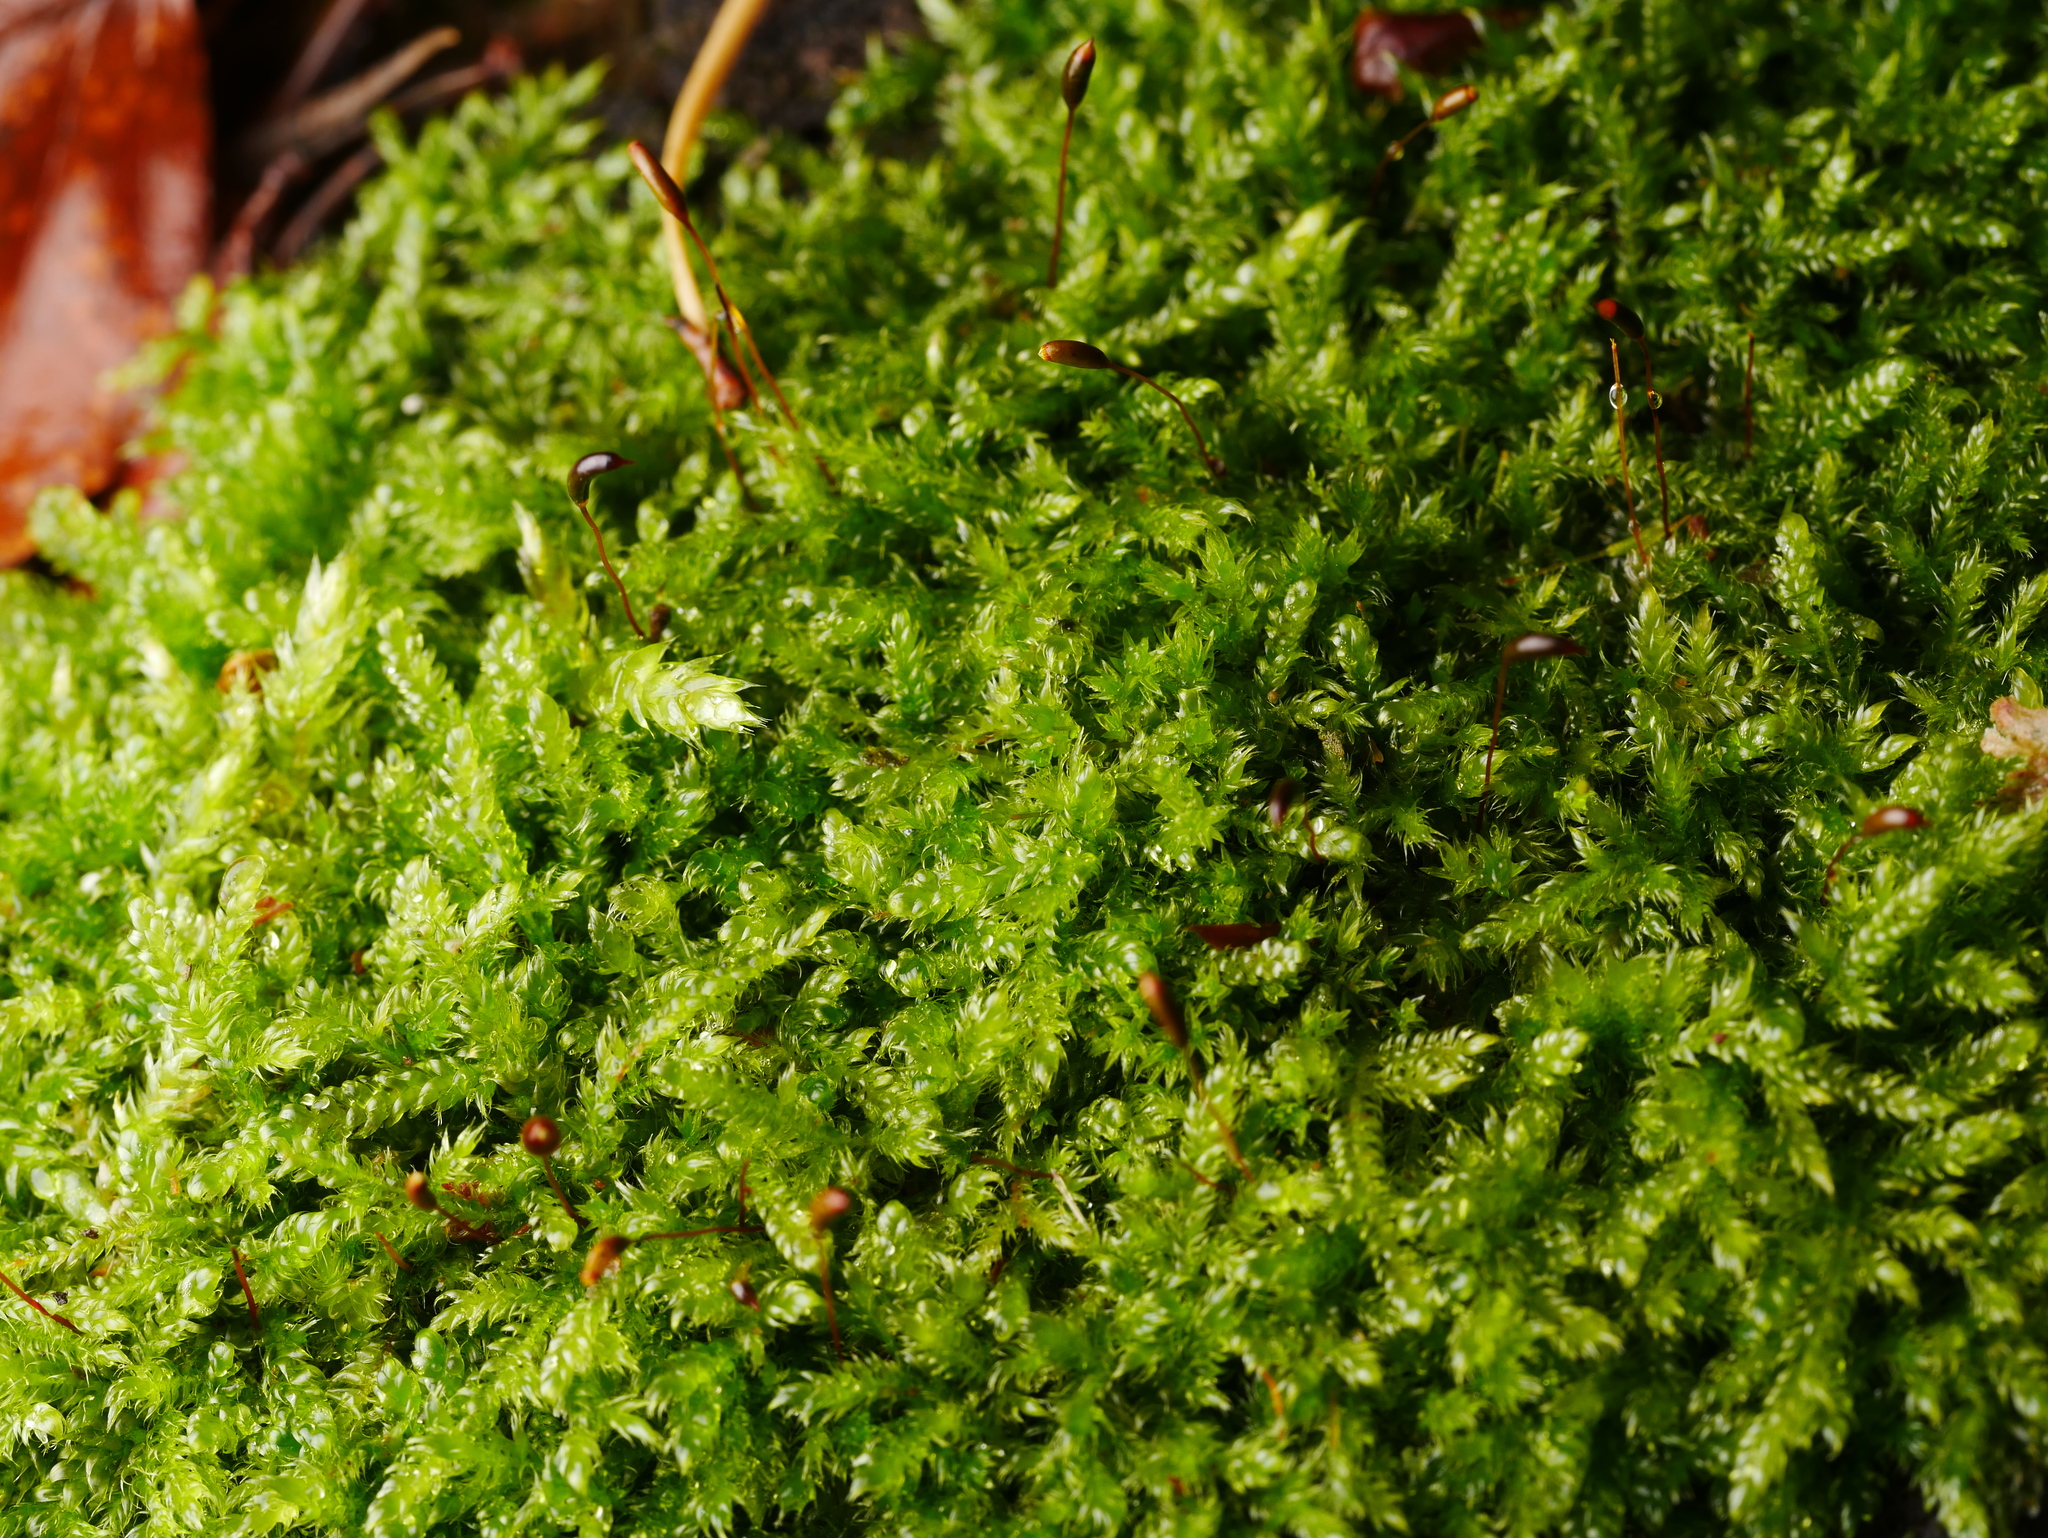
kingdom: Plantae
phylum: Bryophyta
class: Bryopsida
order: Hypnales
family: Hypnaceae
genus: Hypnum
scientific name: Hypnum cupressiforme
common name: Cypress-leaved plait-moss
